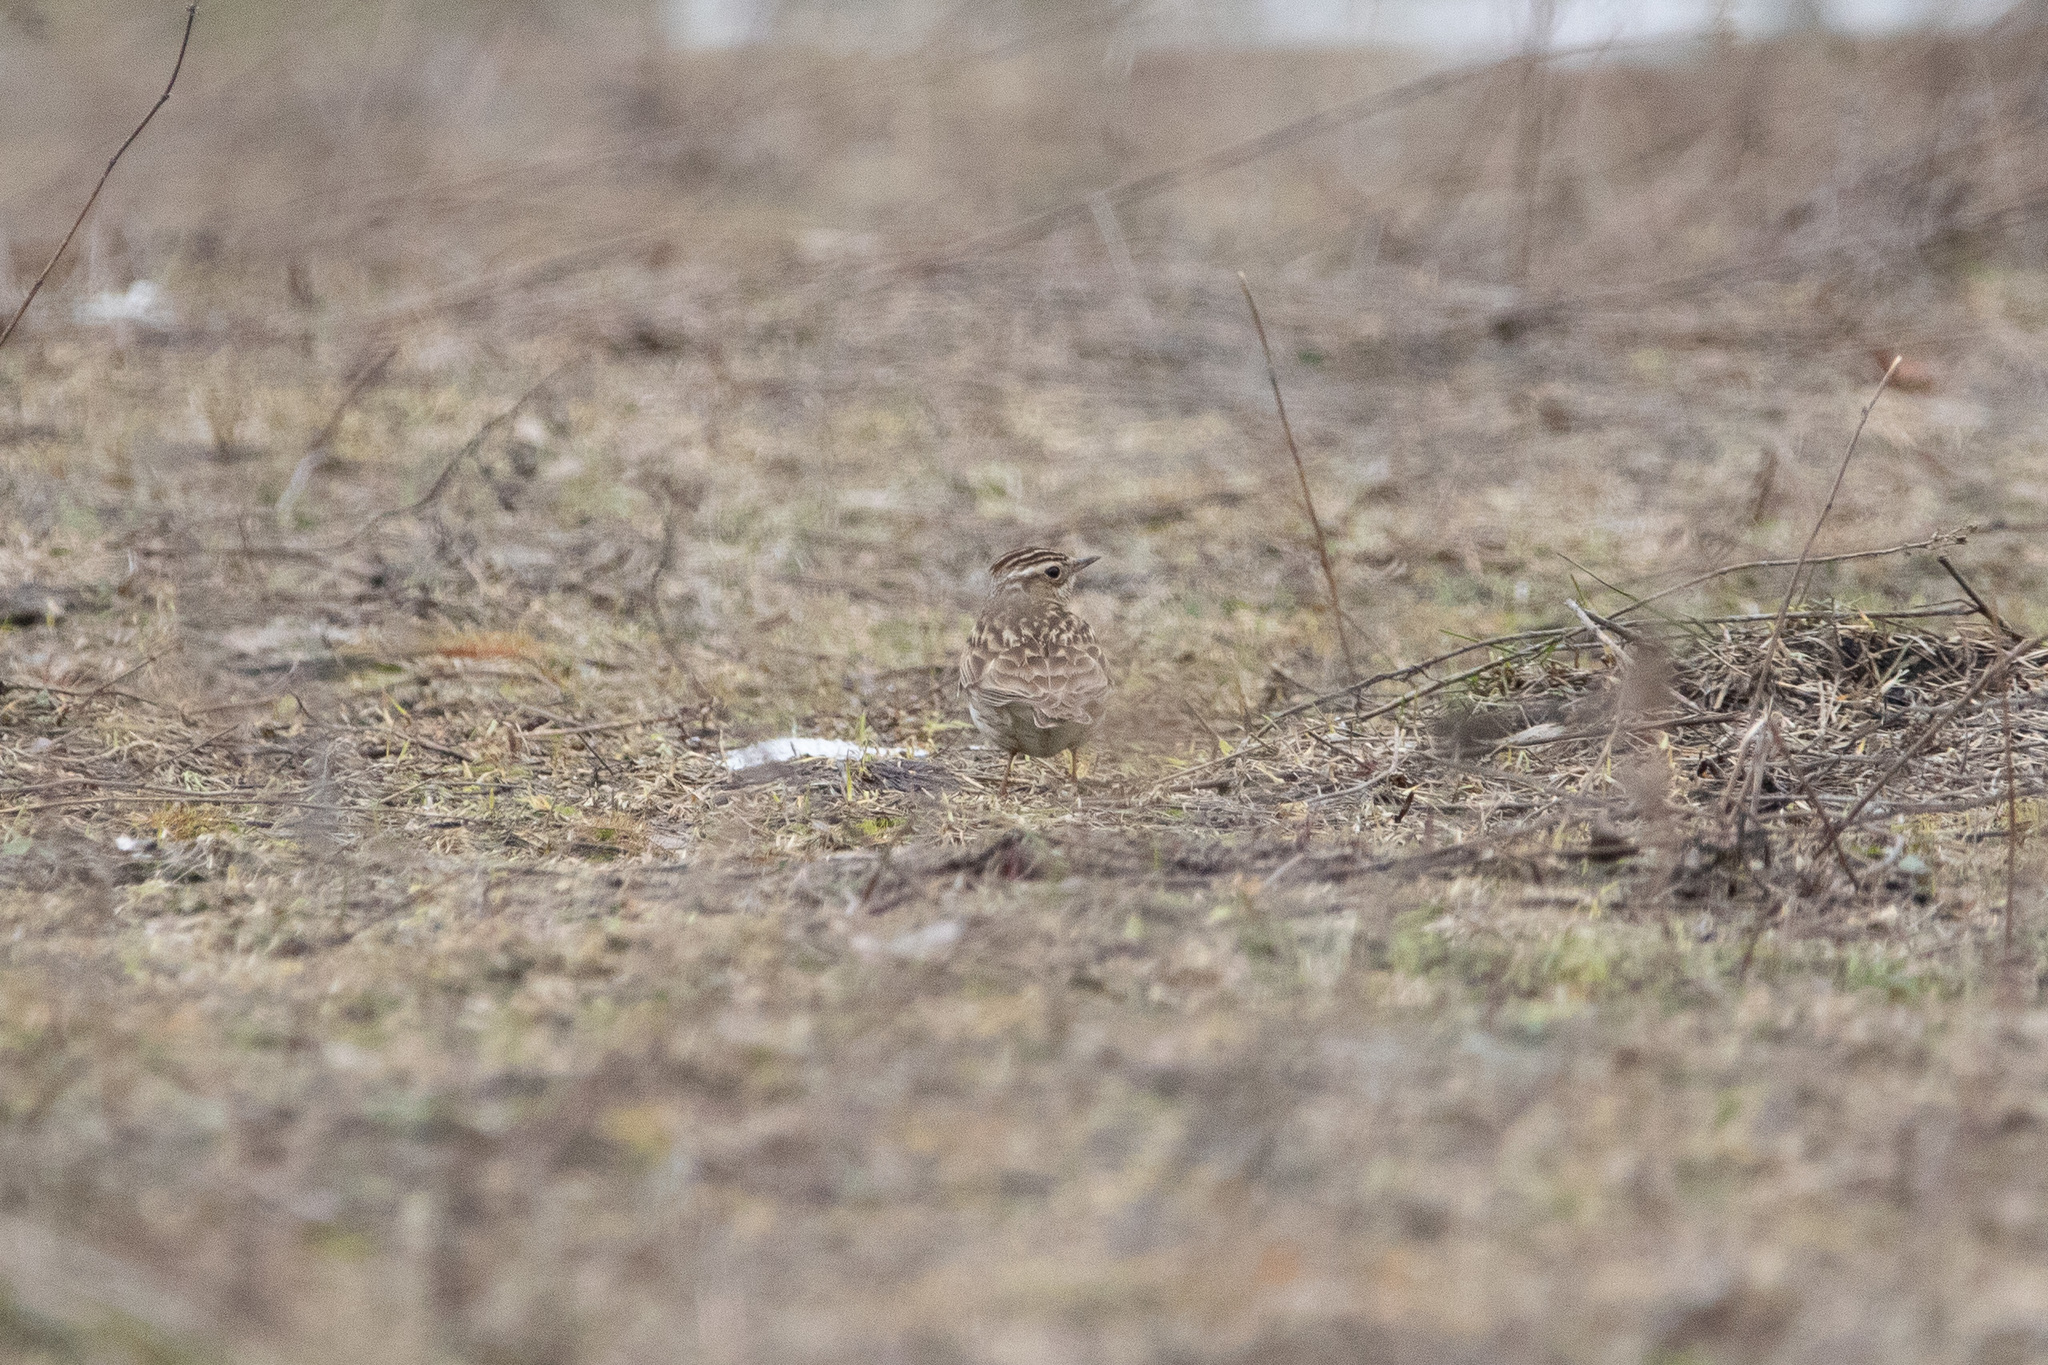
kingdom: Animalia
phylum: Chordata
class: Aves
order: Passeriformes
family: Alaudidae
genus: Lullula
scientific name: Lullula arborea
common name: Woodlark
